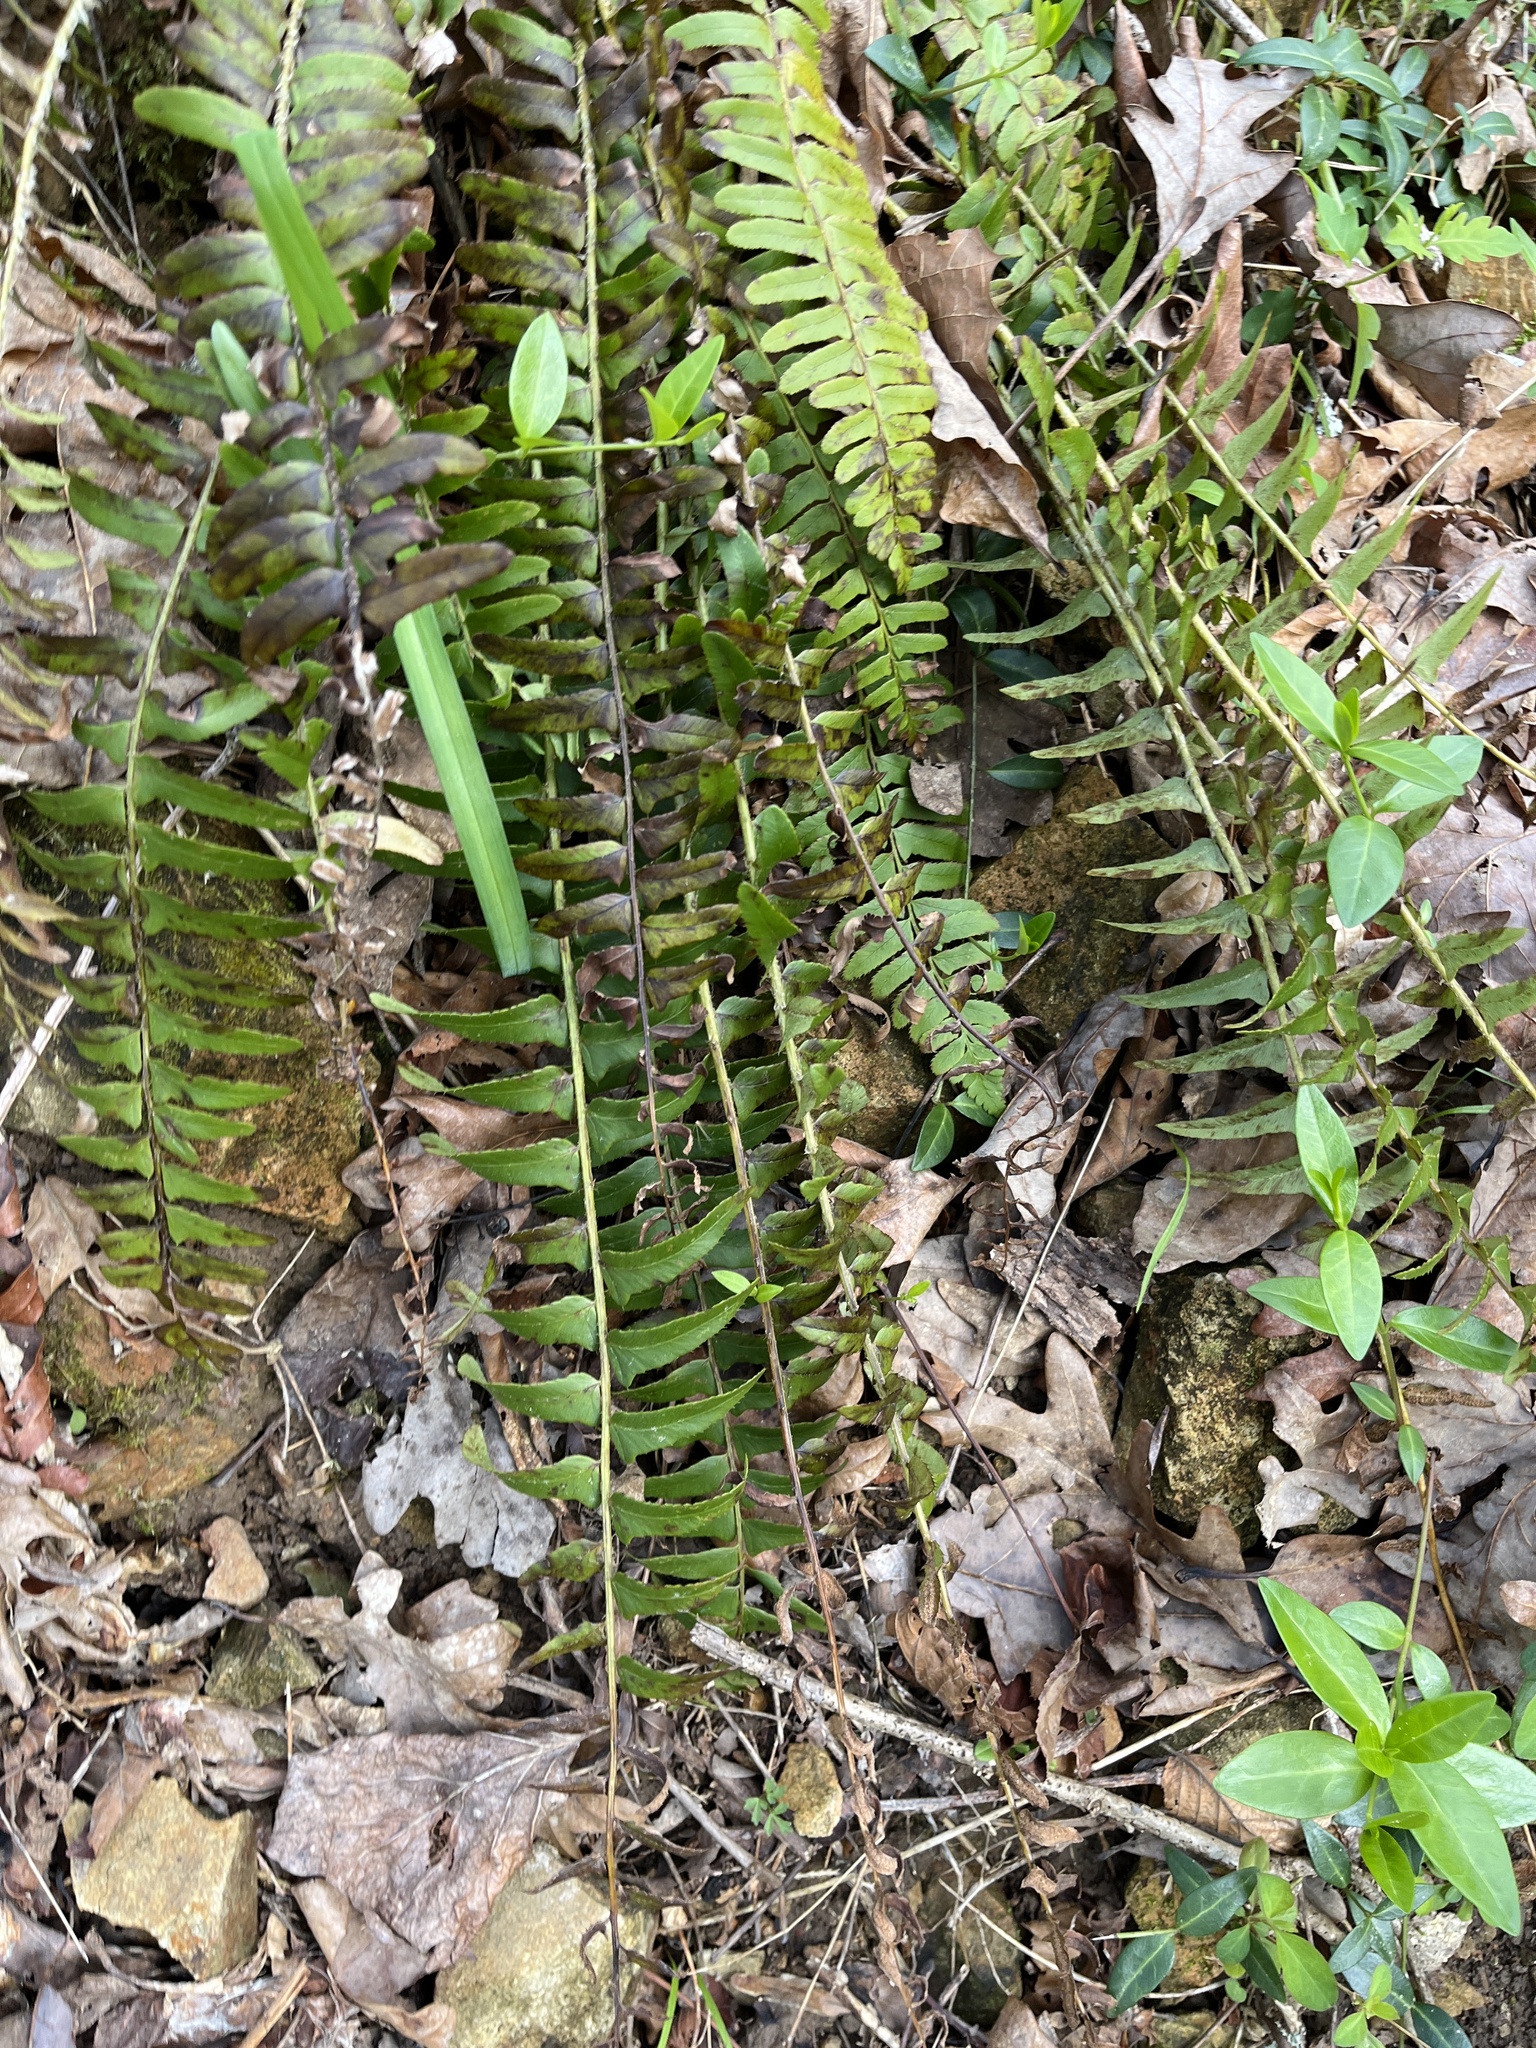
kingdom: Plantae
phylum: Tracheophyta
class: Polypodiopsida
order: Polypodiales
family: Dryopteridaceae
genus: Polystichum
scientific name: Polystichum acrostichoides
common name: Christmas fern
